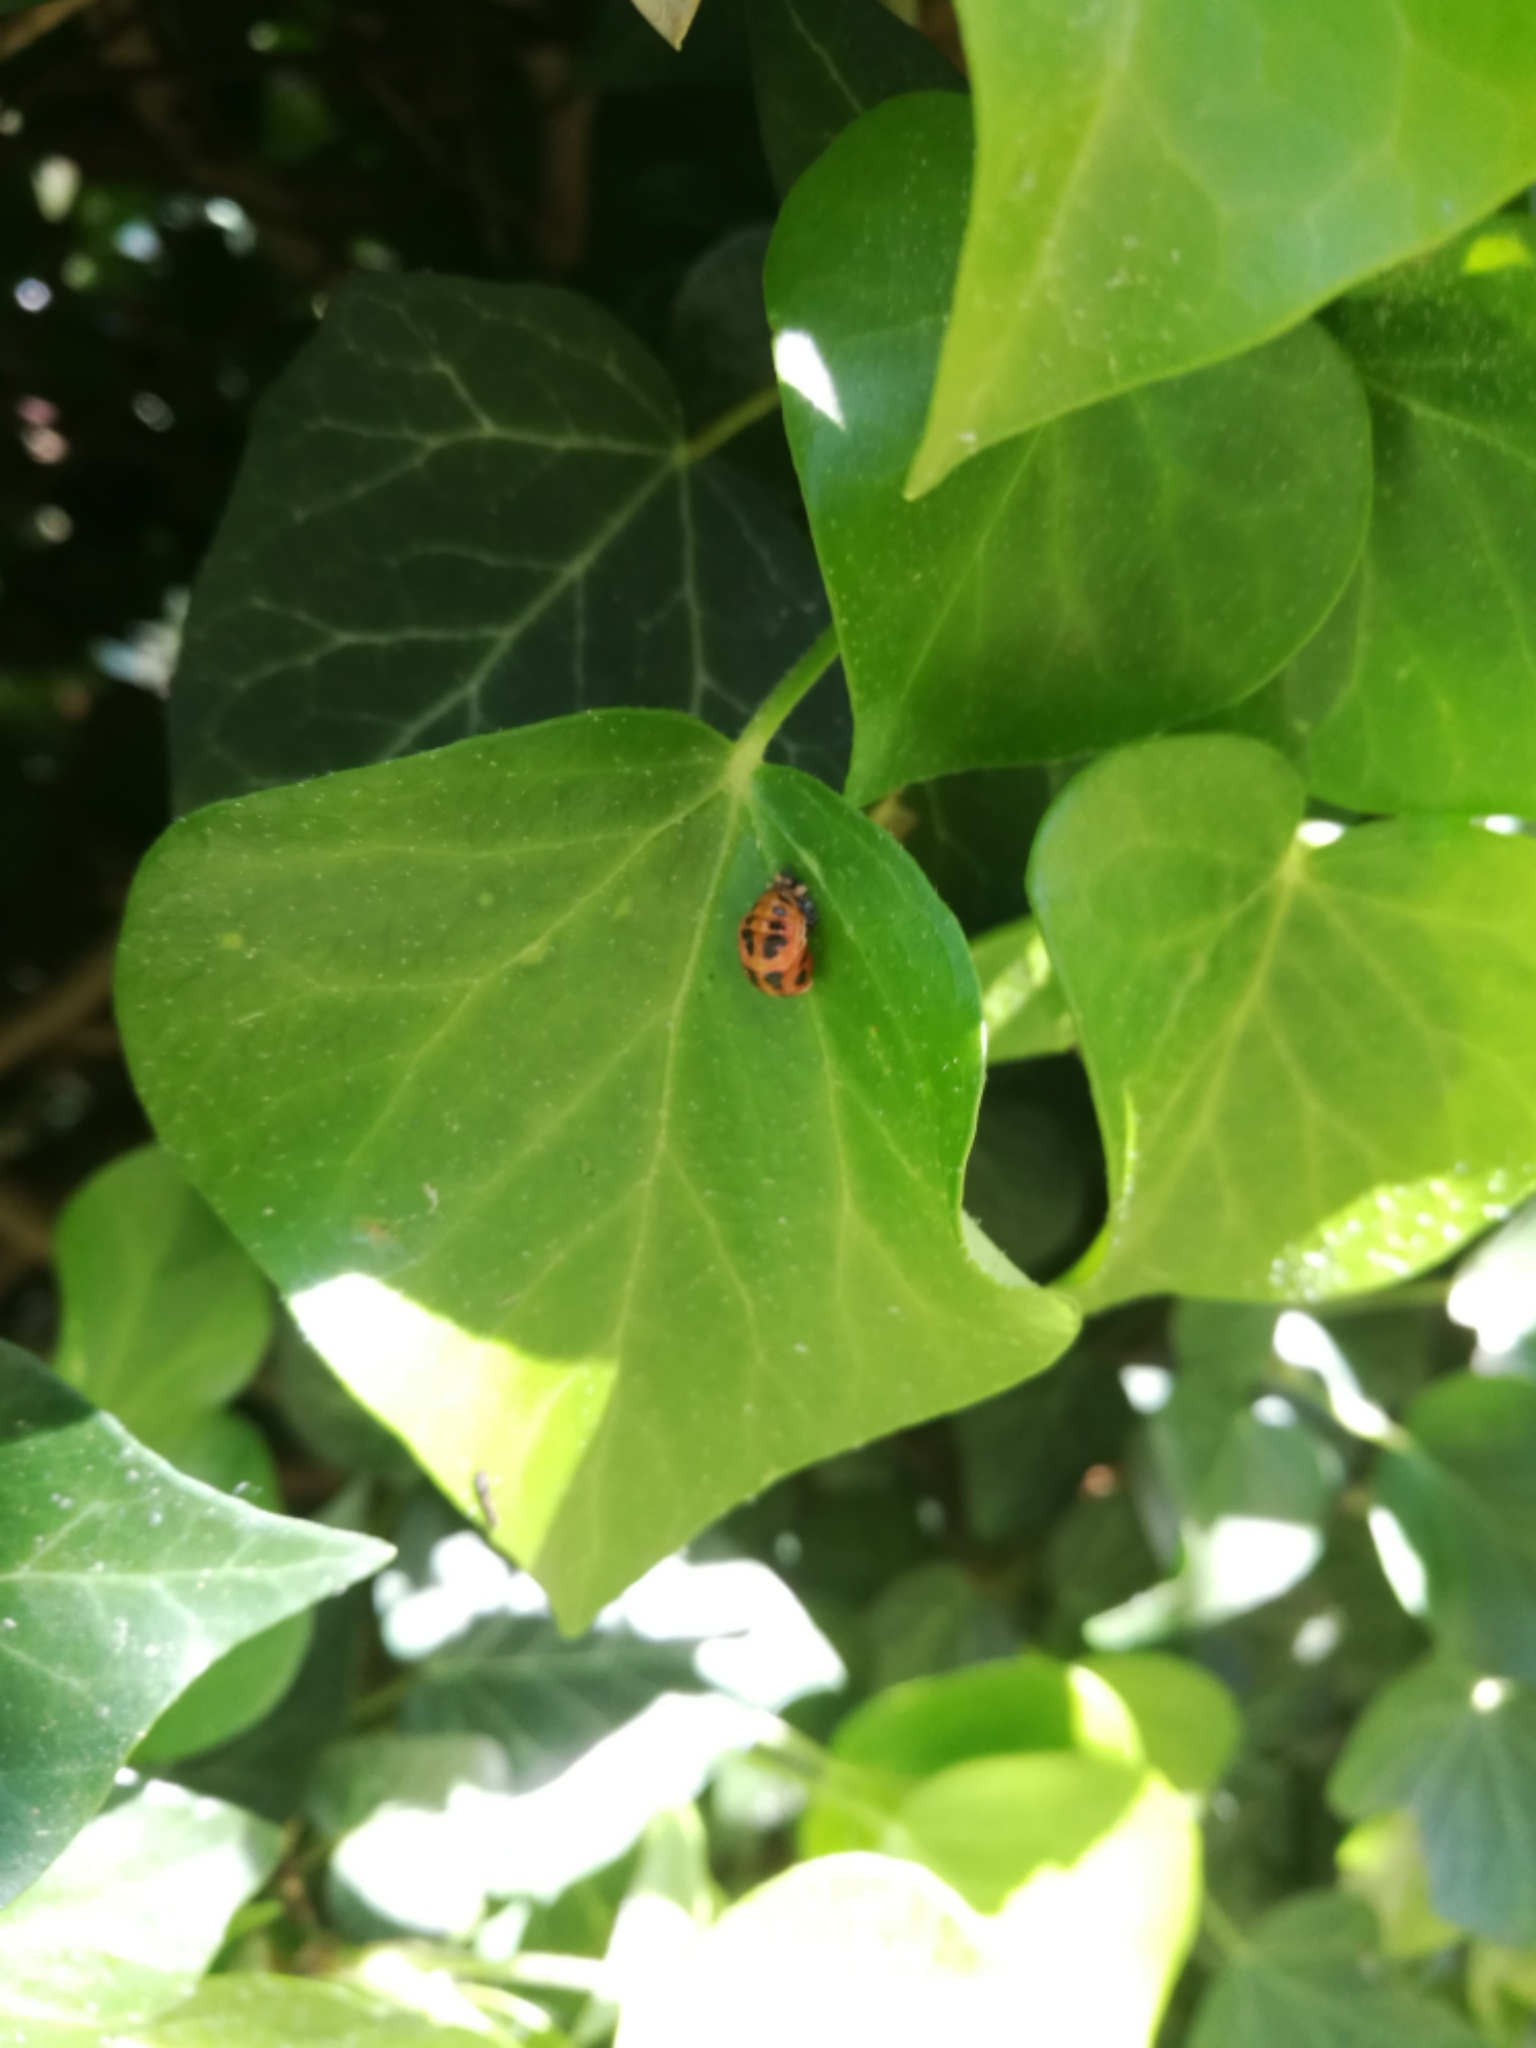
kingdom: Animalia
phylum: Arthropoda
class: Insecta
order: Coleoptera
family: Coccinellidae
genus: Harmonia
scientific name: Harmonia axyridis
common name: Harlequin ladybird
